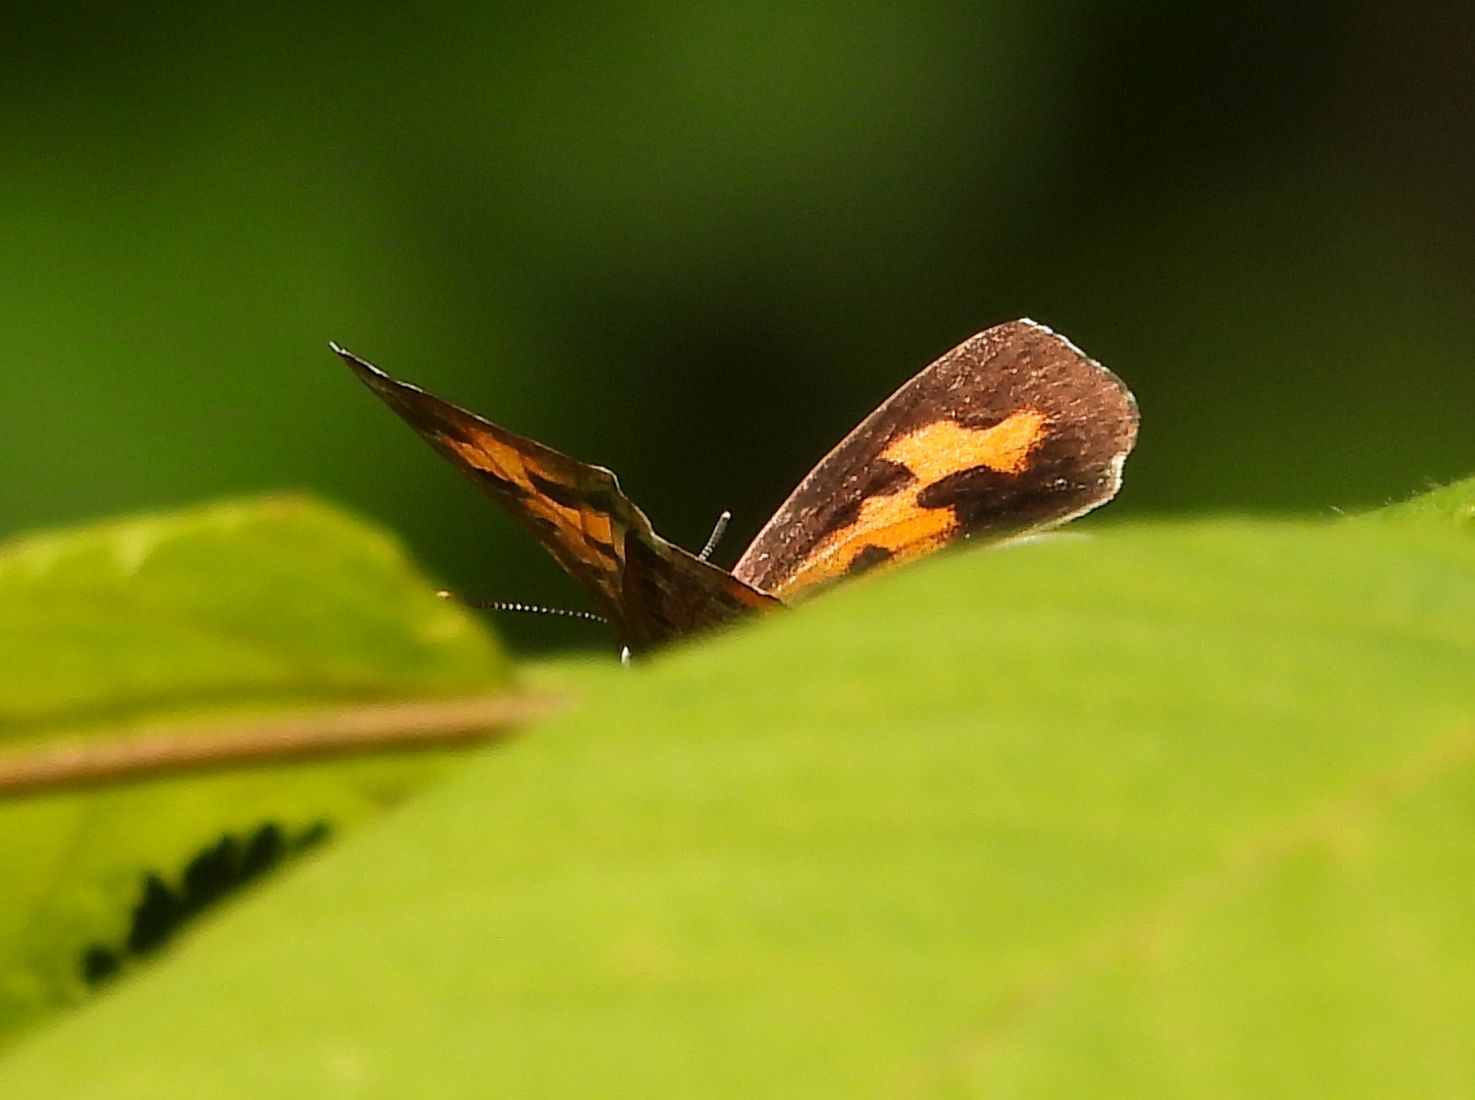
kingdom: Animalia
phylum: Arthropoda
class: Insecta
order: Lepidoptera
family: Lycaenidae
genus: Feniseca
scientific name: Feniseca tarquinius
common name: Harvester
